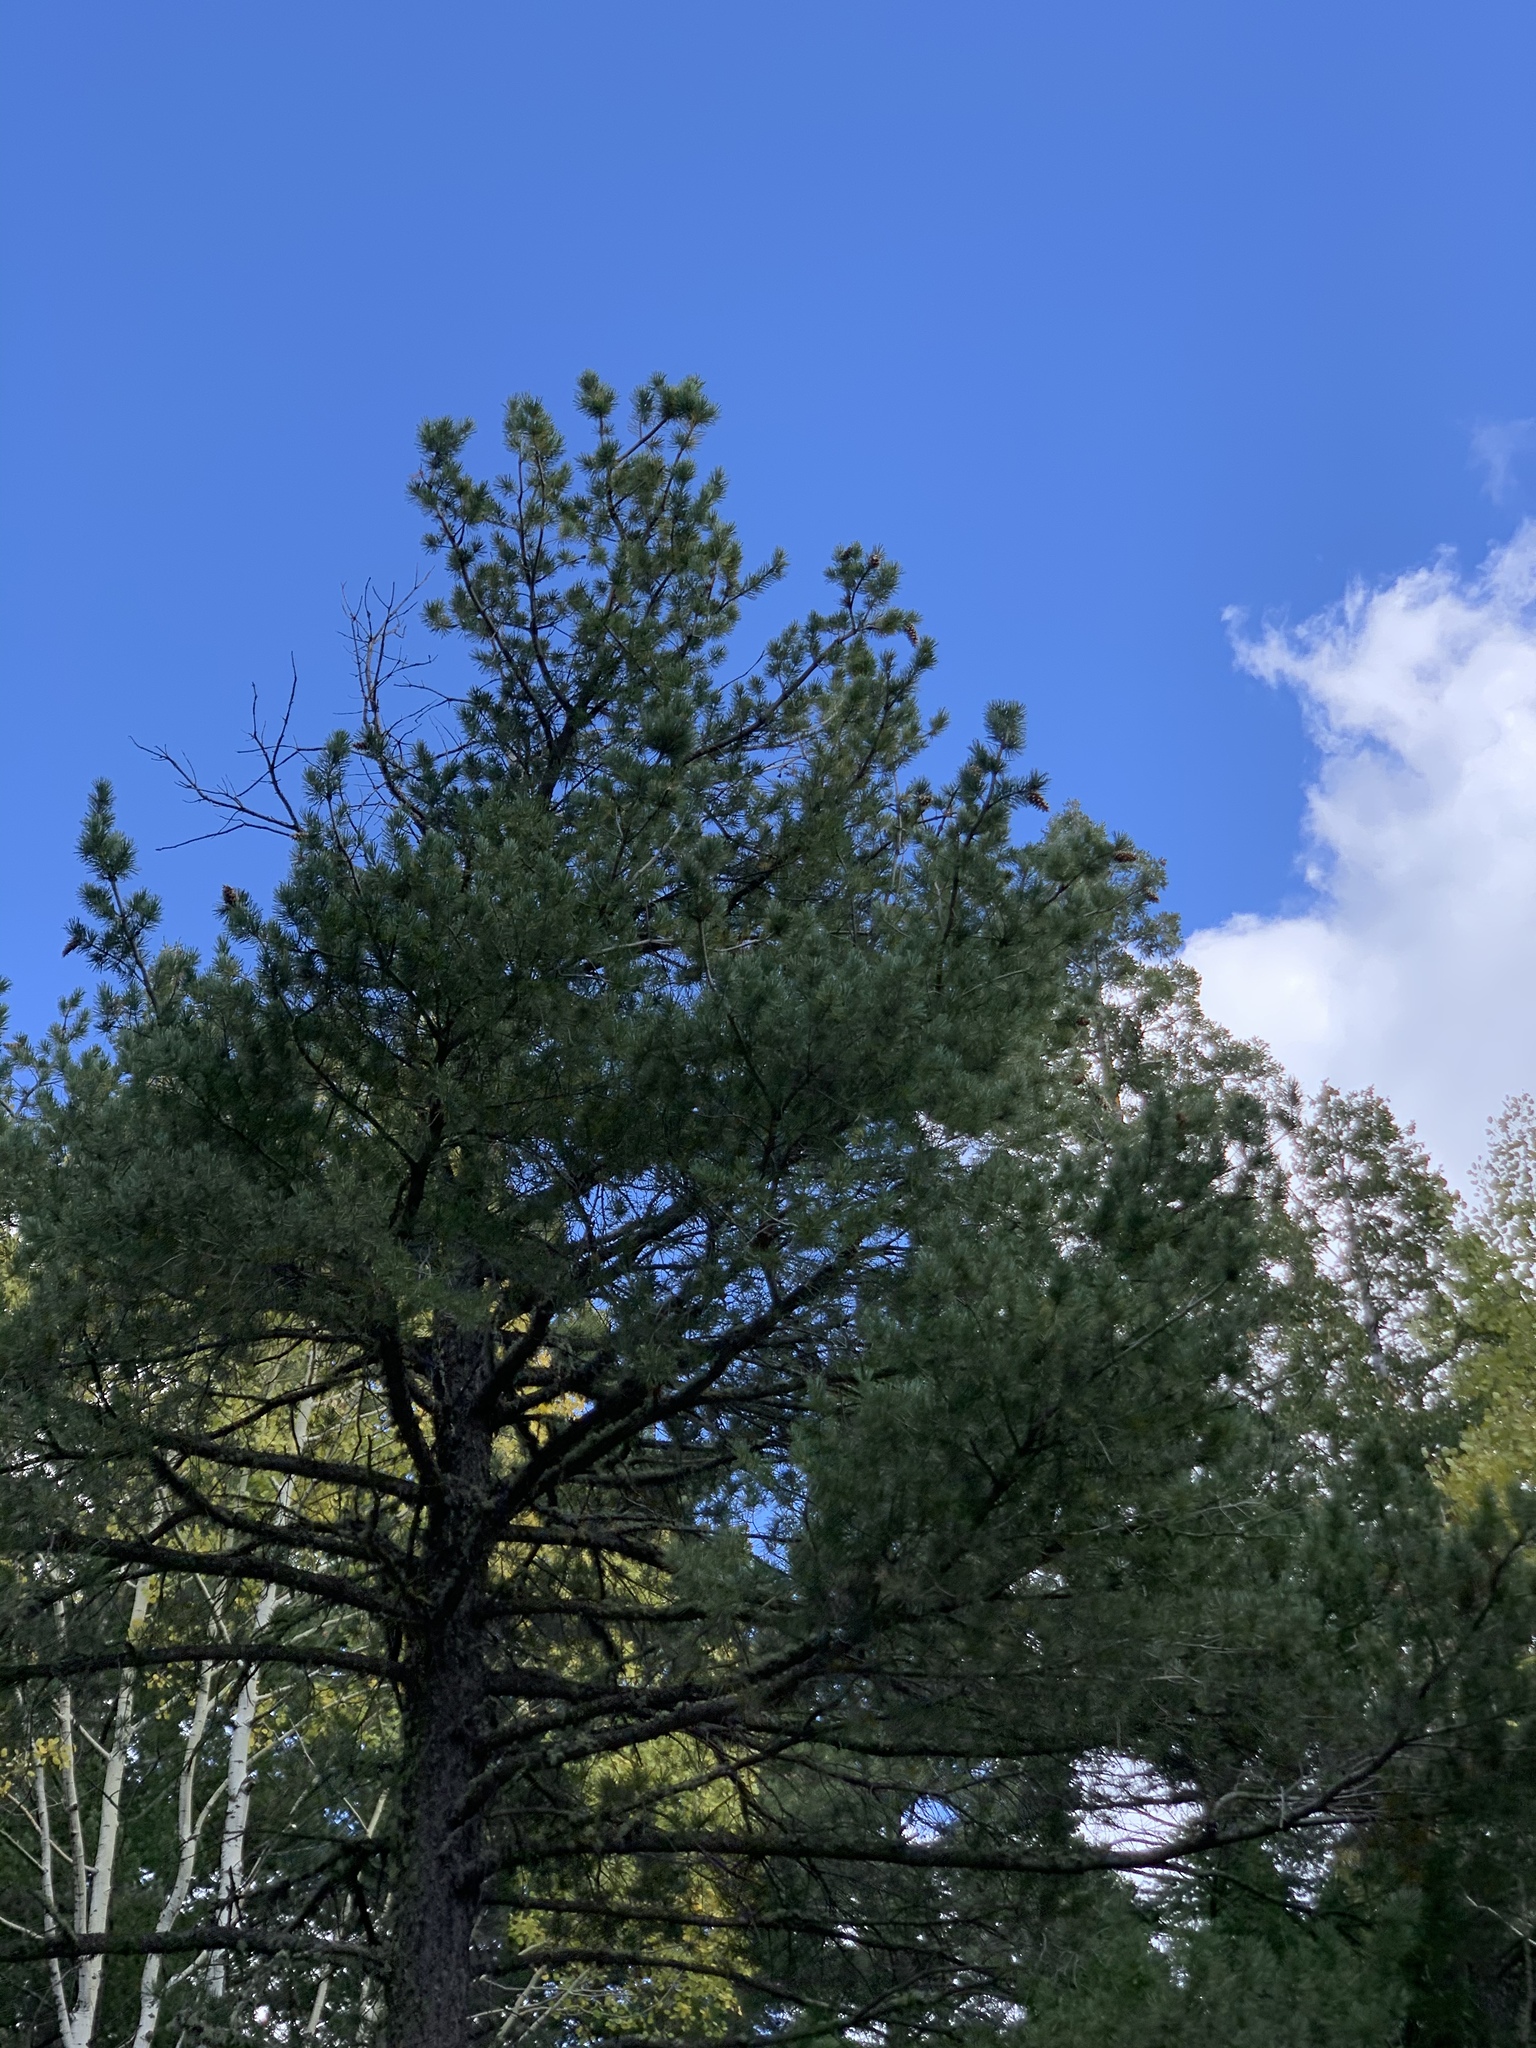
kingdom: Plantae
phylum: Tracheophyta
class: Pinopsida
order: Pinales
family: Pinaceae
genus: Pinus
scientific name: Pinus strobiformis
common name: Southwestern white pine
